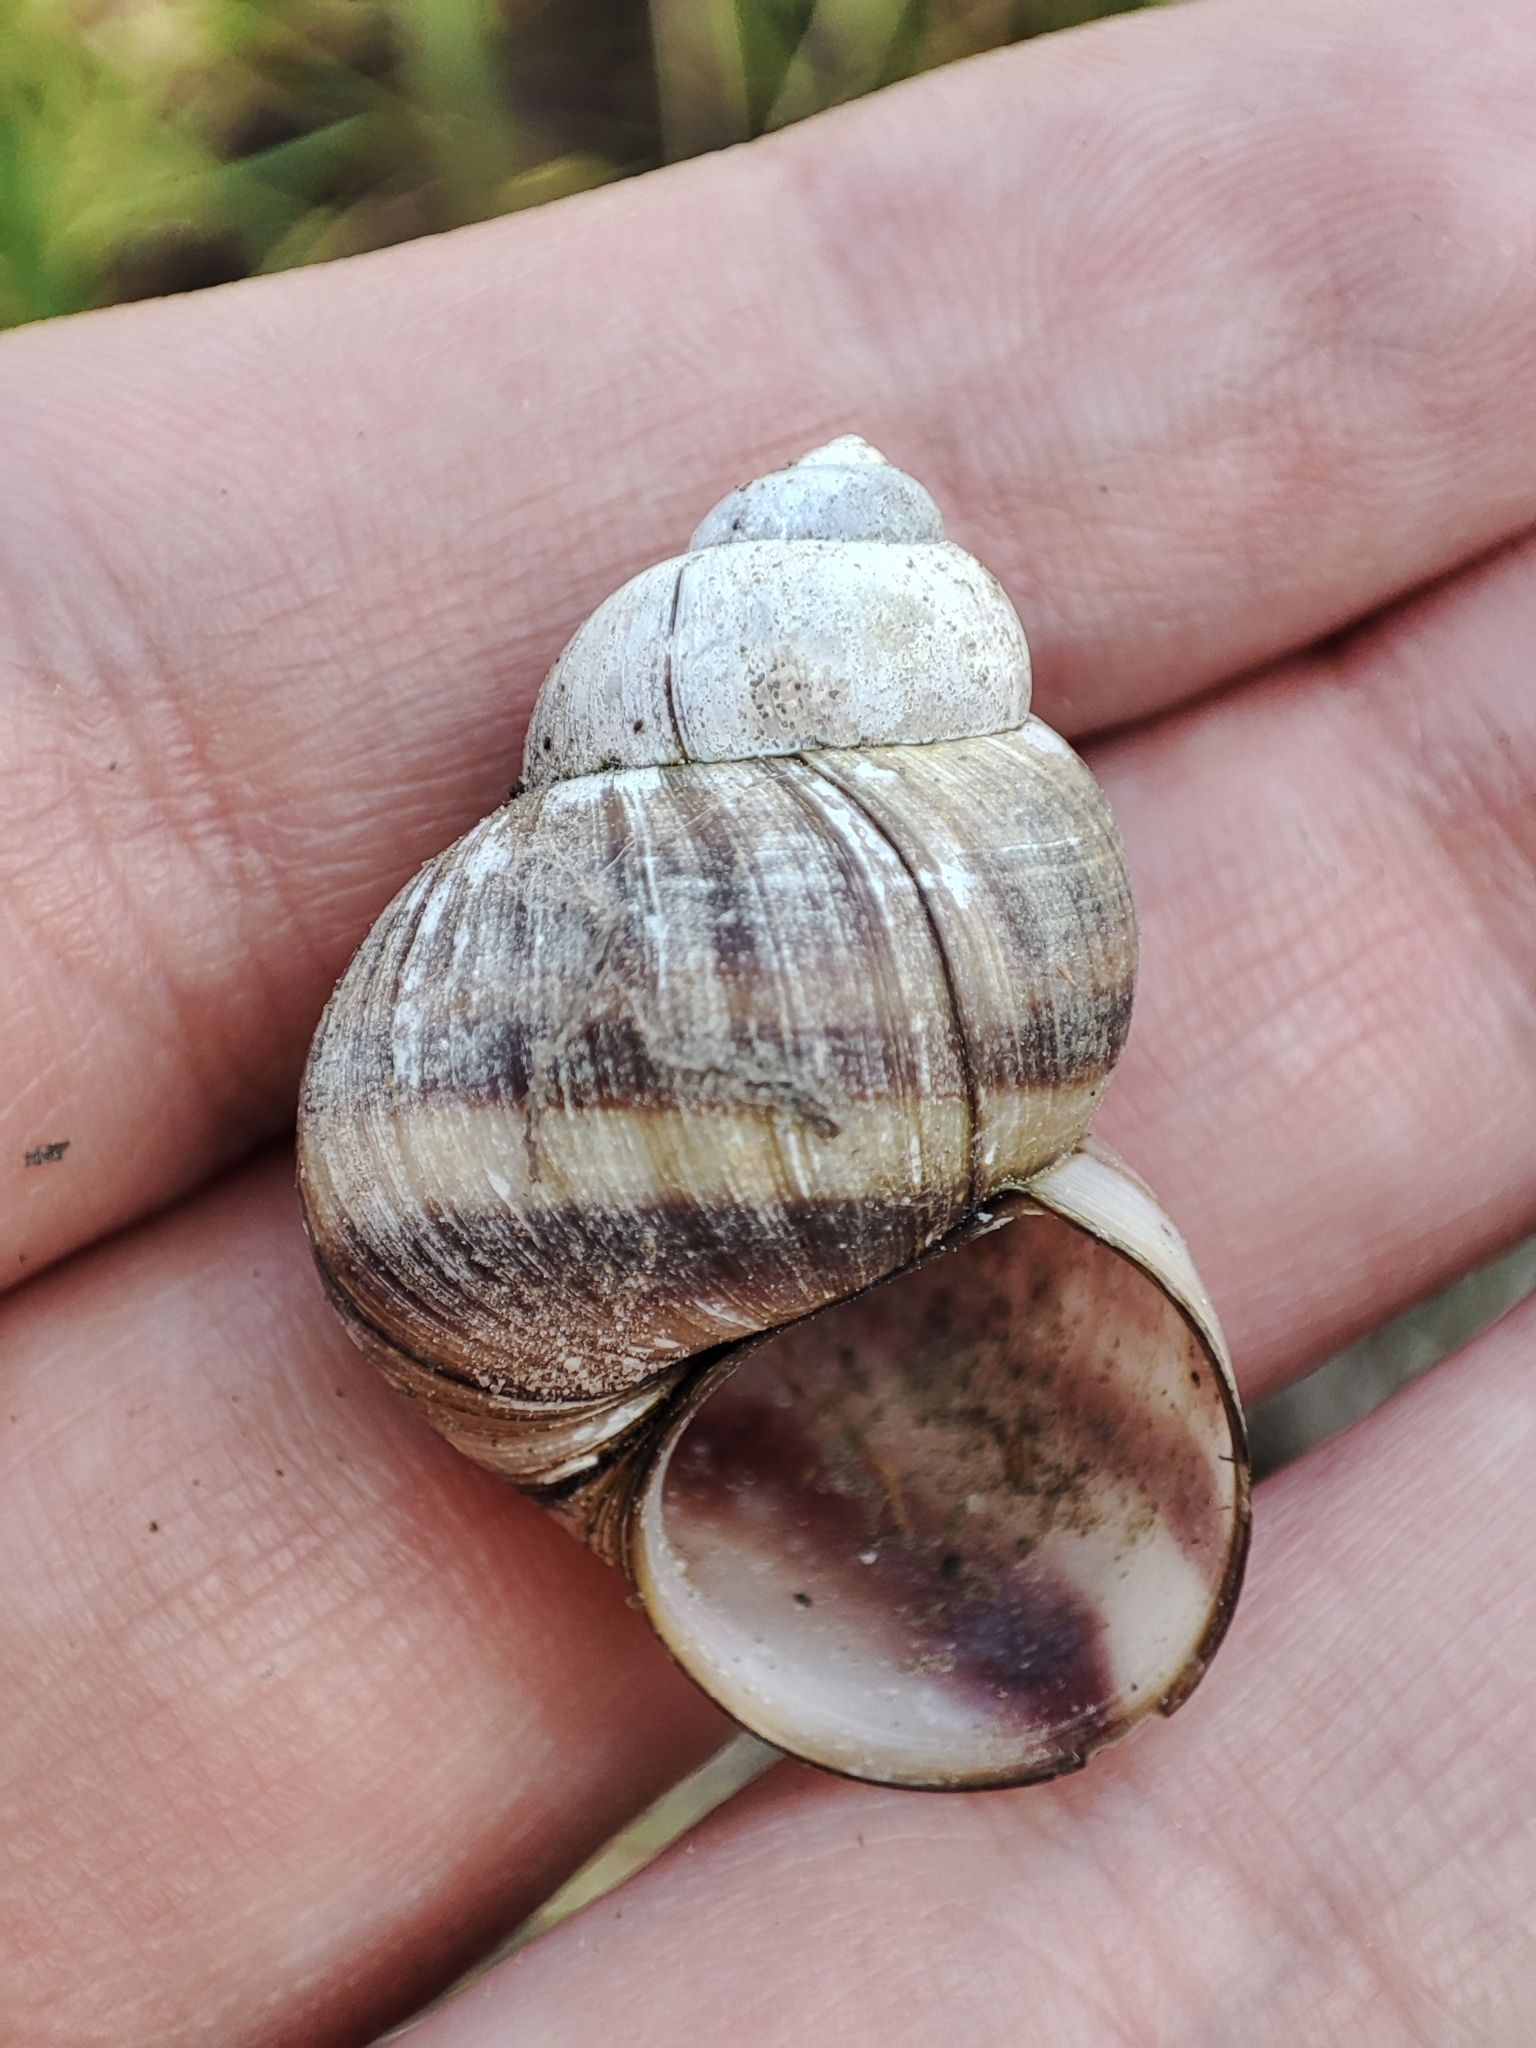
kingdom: Animalia
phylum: Mollusca
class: Gastropoda
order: Architaenioglossa
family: Viviparidae
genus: Viviparus
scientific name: Viviparus viviparus
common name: River snail
